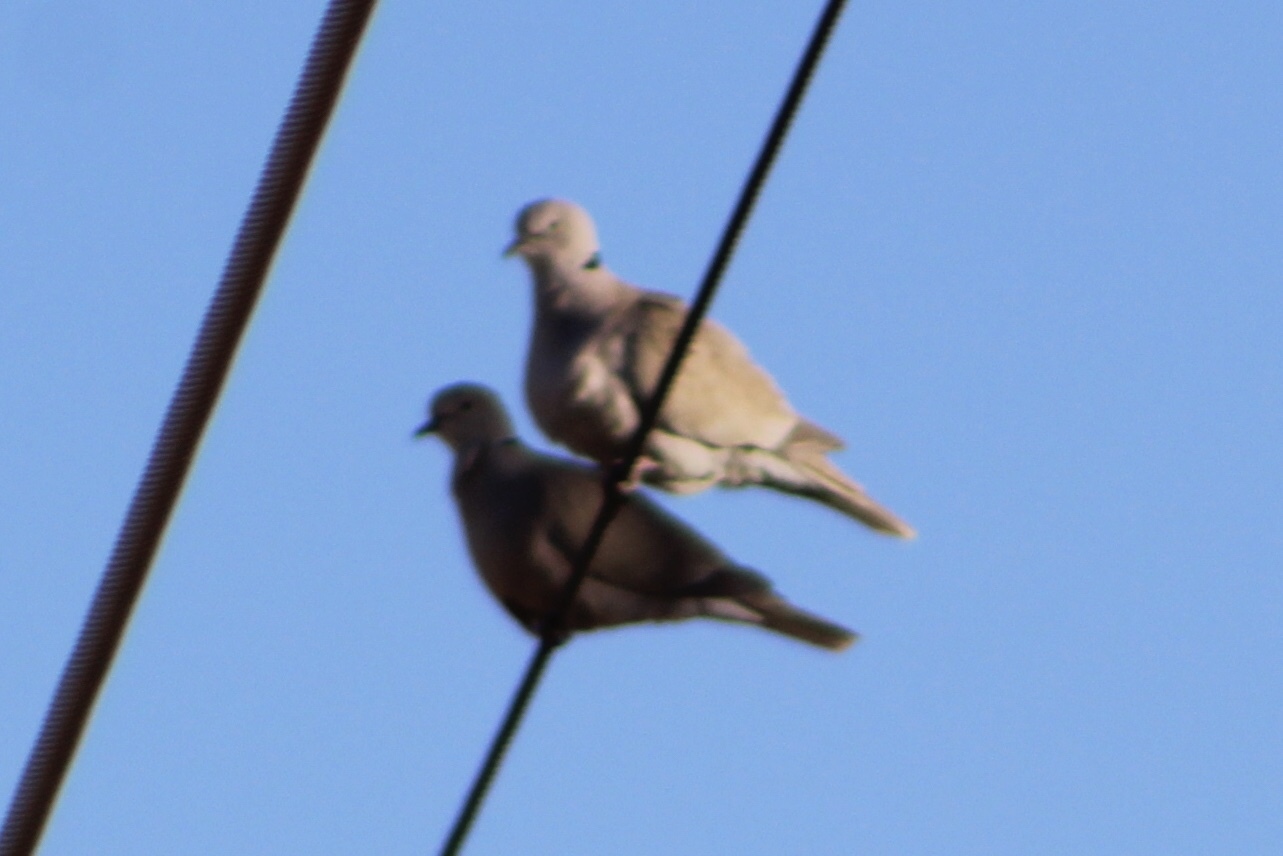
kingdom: Animalia
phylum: Chordata
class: Aves
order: Columbiformes
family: Columbidae
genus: Streptopelia
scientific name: Streptopelia decaocto
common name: Eurasian collared dove
